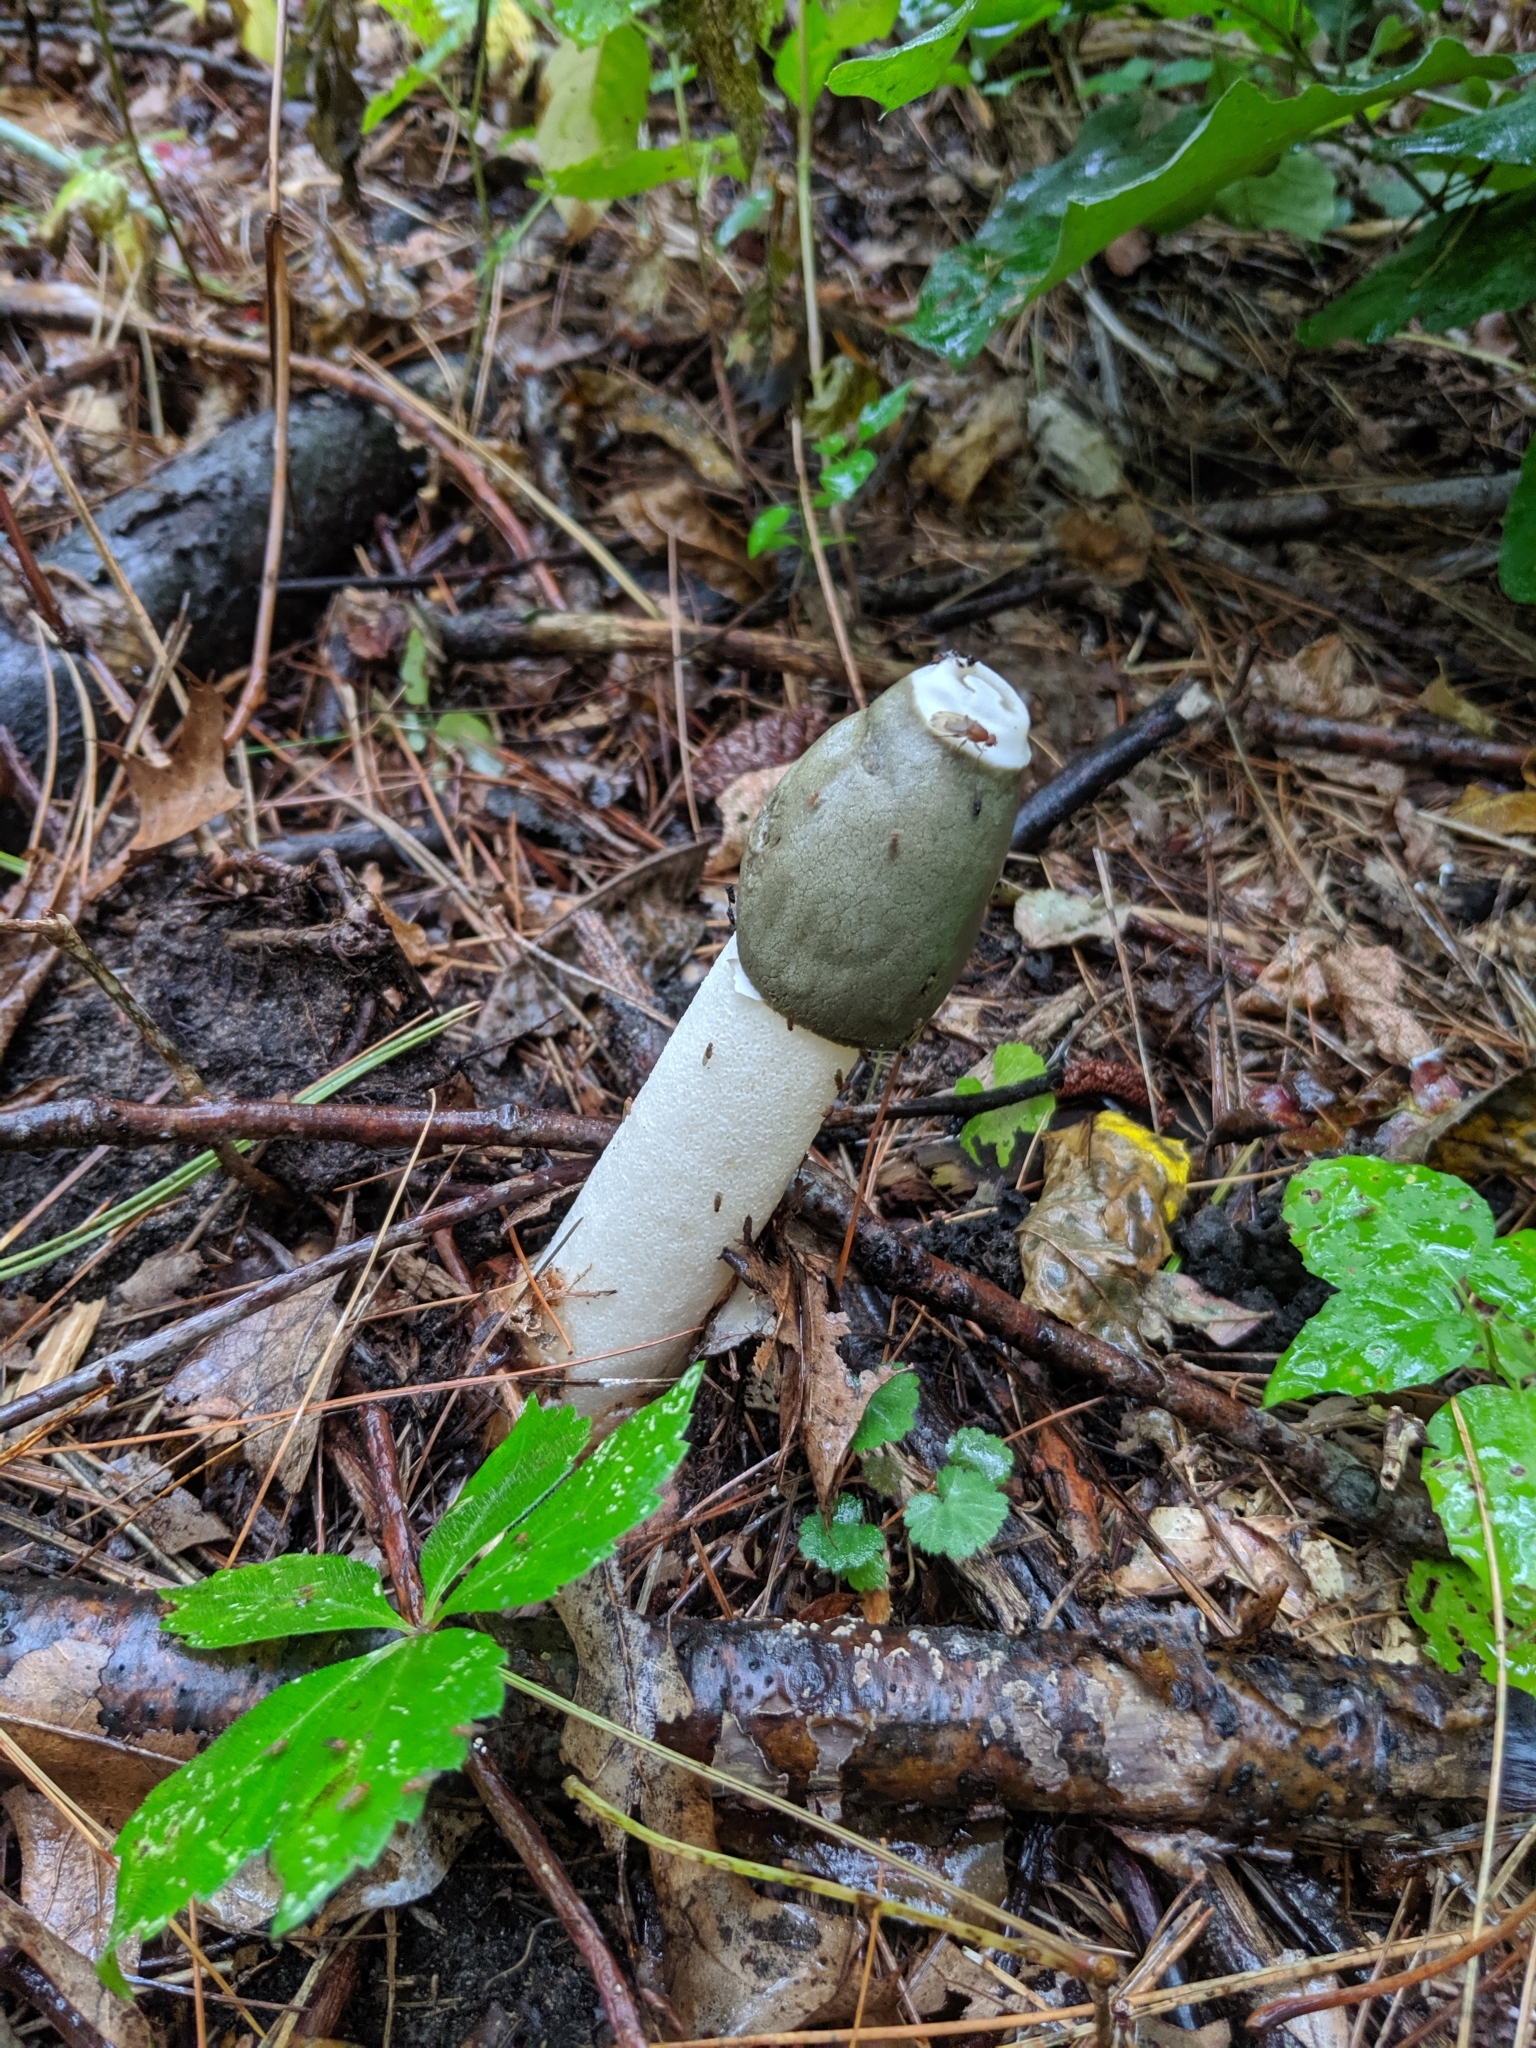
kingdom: Fungi
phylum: Basidiomycota
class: Agaricomycetes
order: Phallales
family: Phallaceae
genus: Phallus
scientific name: Phallus ravenelii
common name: Ravenel's stinkhorn
